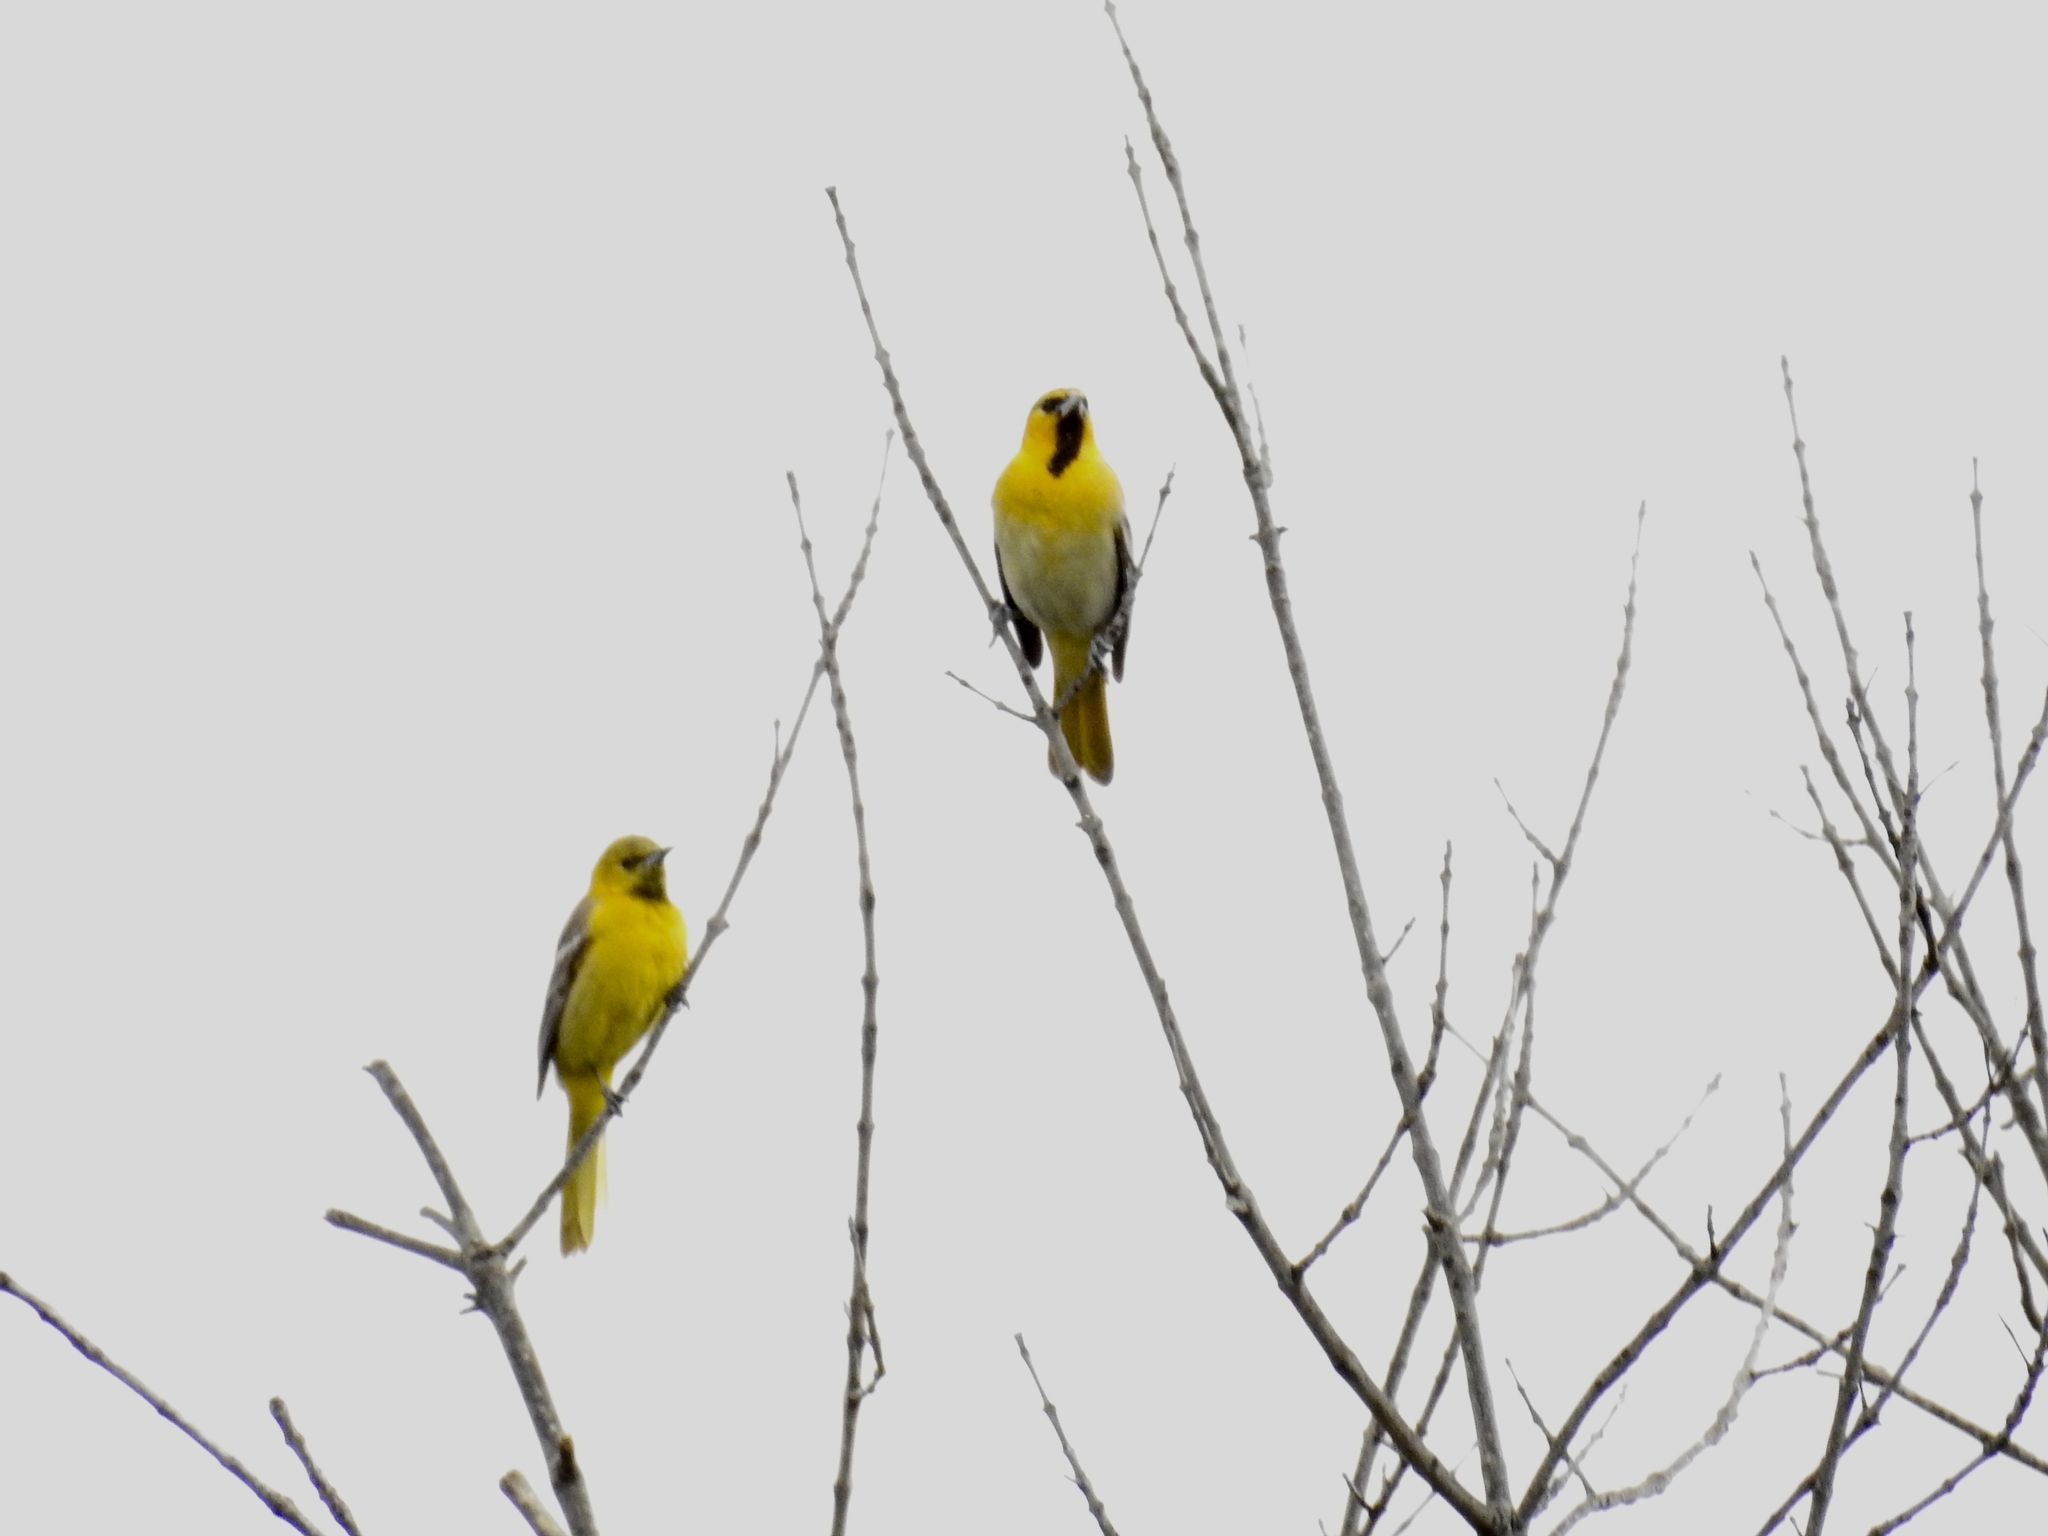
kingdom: Animalia
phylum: Chordata
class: Aves
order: Passeriformes
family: Icteridae
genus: Icterus
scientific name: Icterus cucullatus
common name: Hooded oriole
